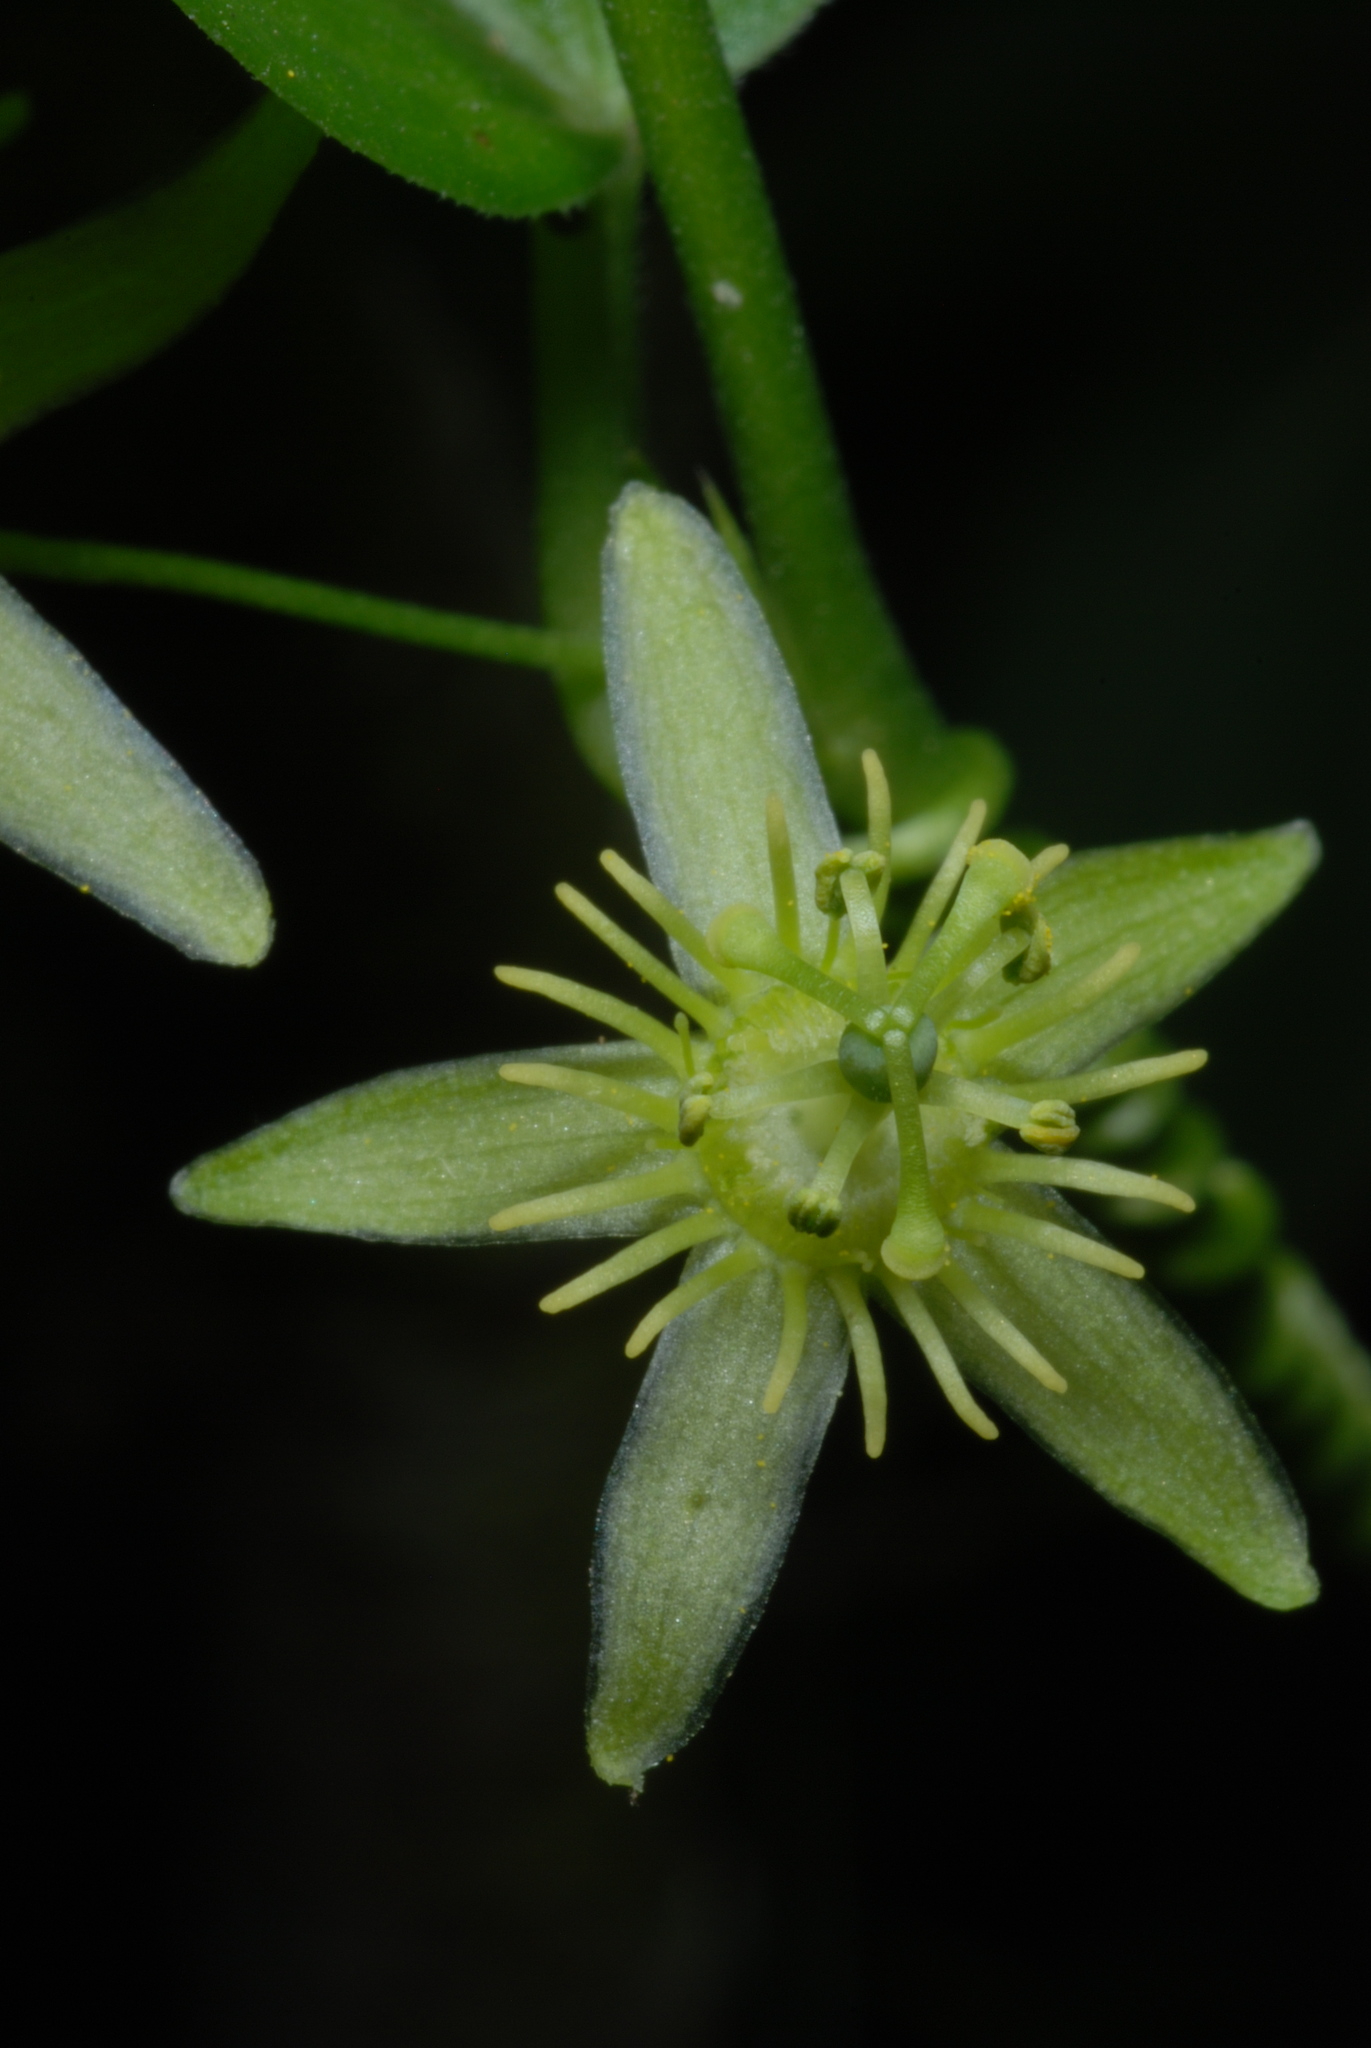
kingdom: Plantae
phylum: Tracheophyta
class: Magnoliopsida
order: Malpighiales
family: Passifloraceae
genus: Passiflora
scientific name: Passiflora pallida
